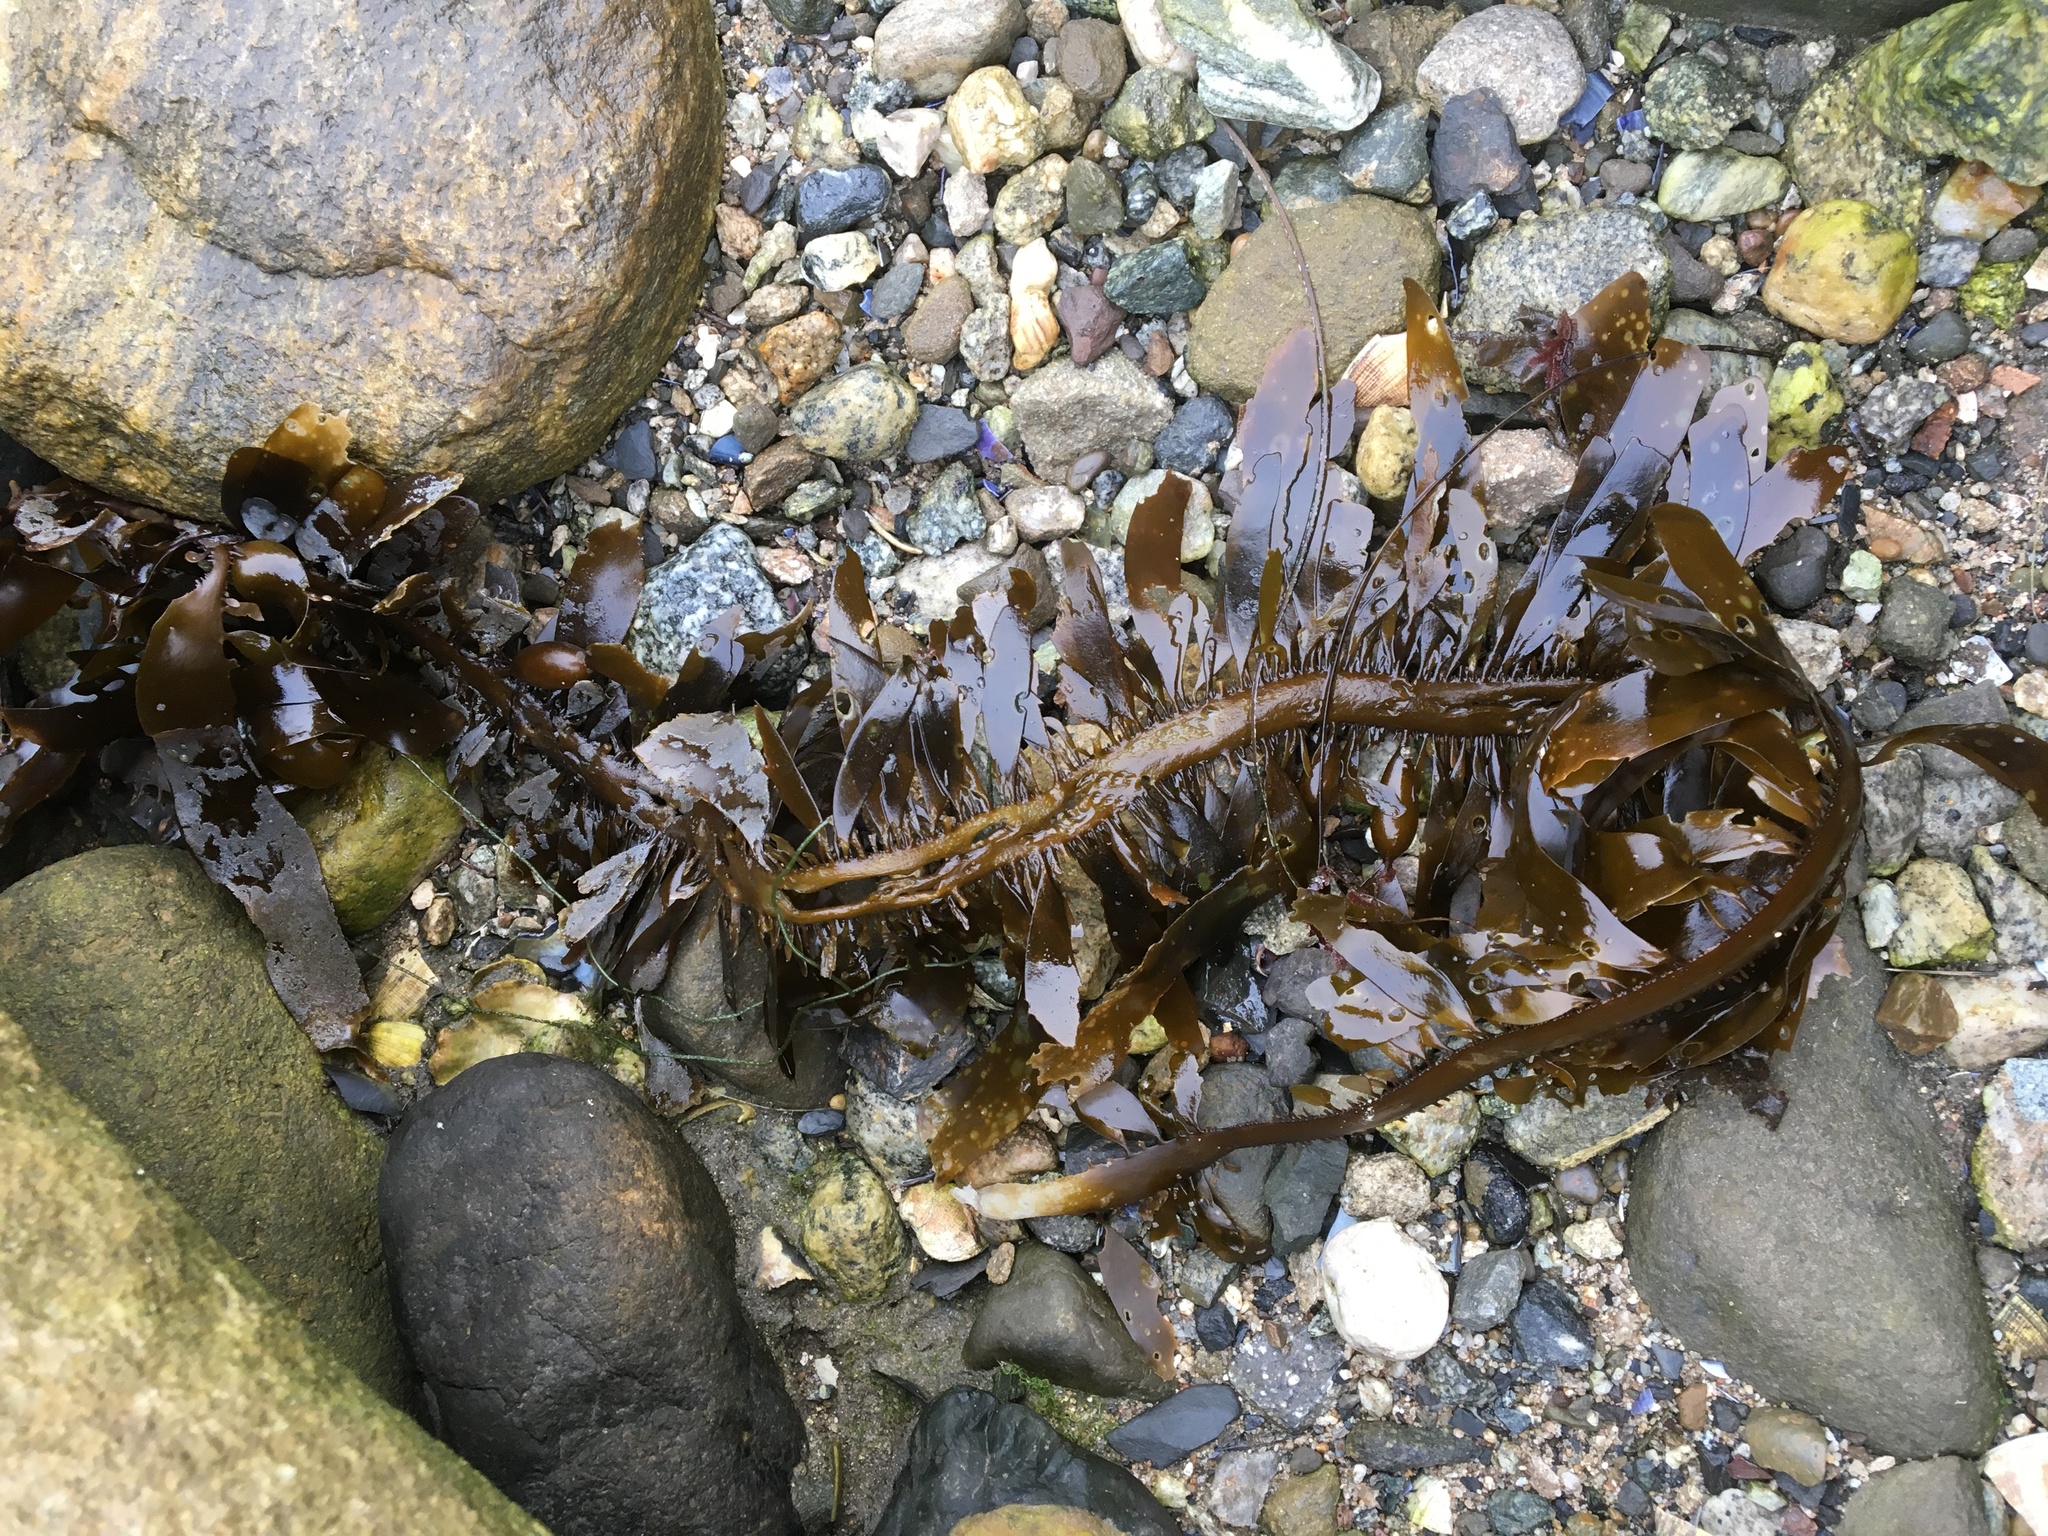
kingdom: Chromista
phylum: Ochrophyta
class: Phaeophyceae
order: Laminariales
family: Lessoniaceae
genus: Egregia
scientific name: Egregia menziesii
